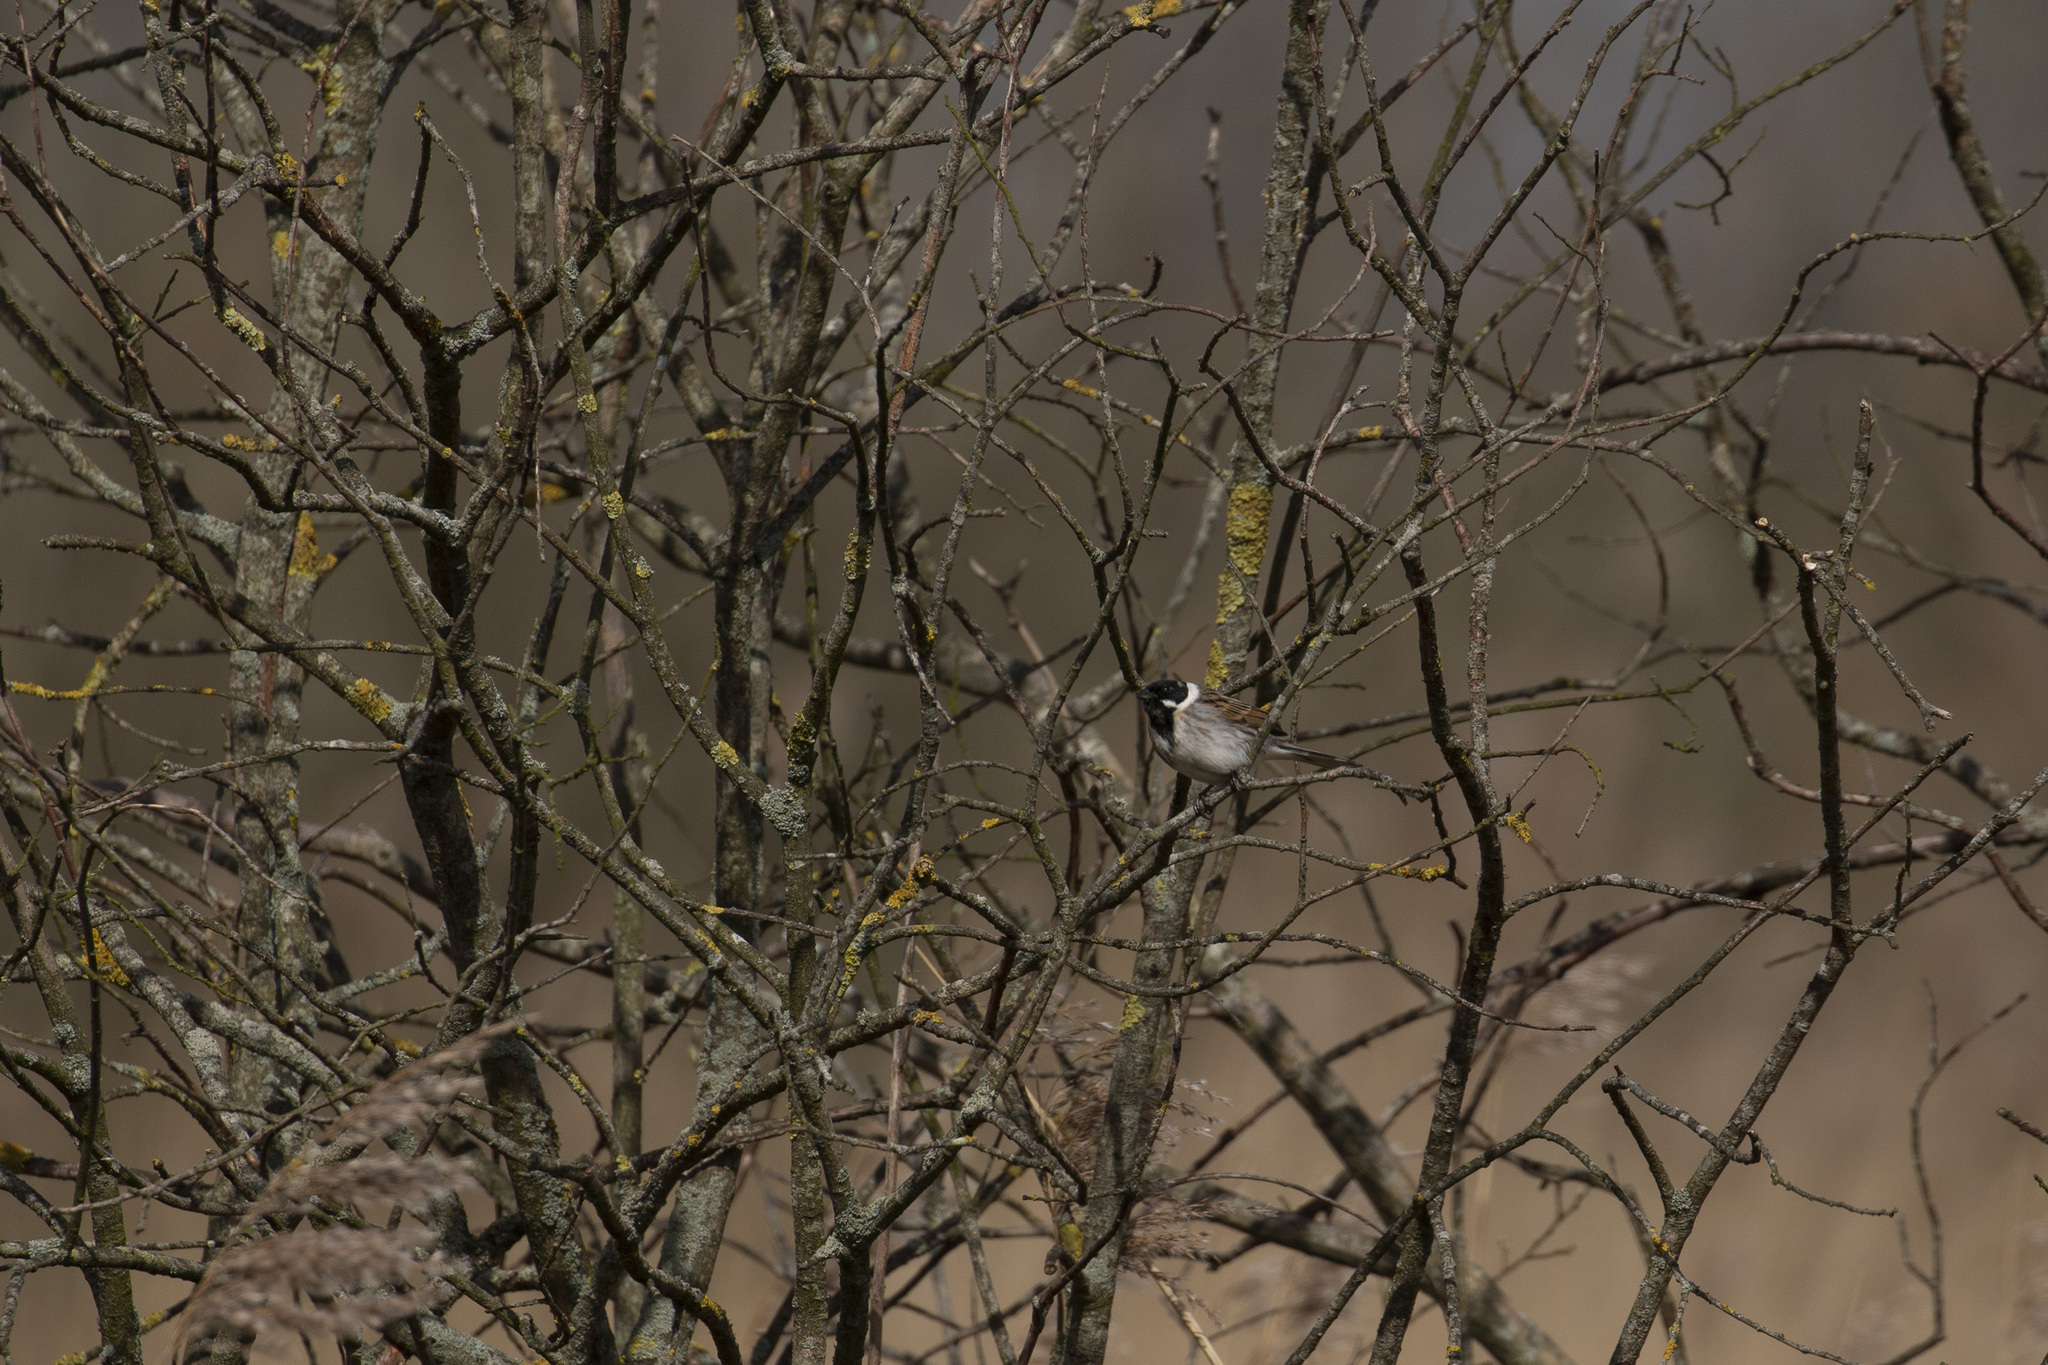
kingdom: Animalia
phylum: Chordata
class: Aves
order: Passeriformes
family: Emberizidae
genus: Emberiza
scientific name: Emberiza schoeniclus
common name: Reed bunting
